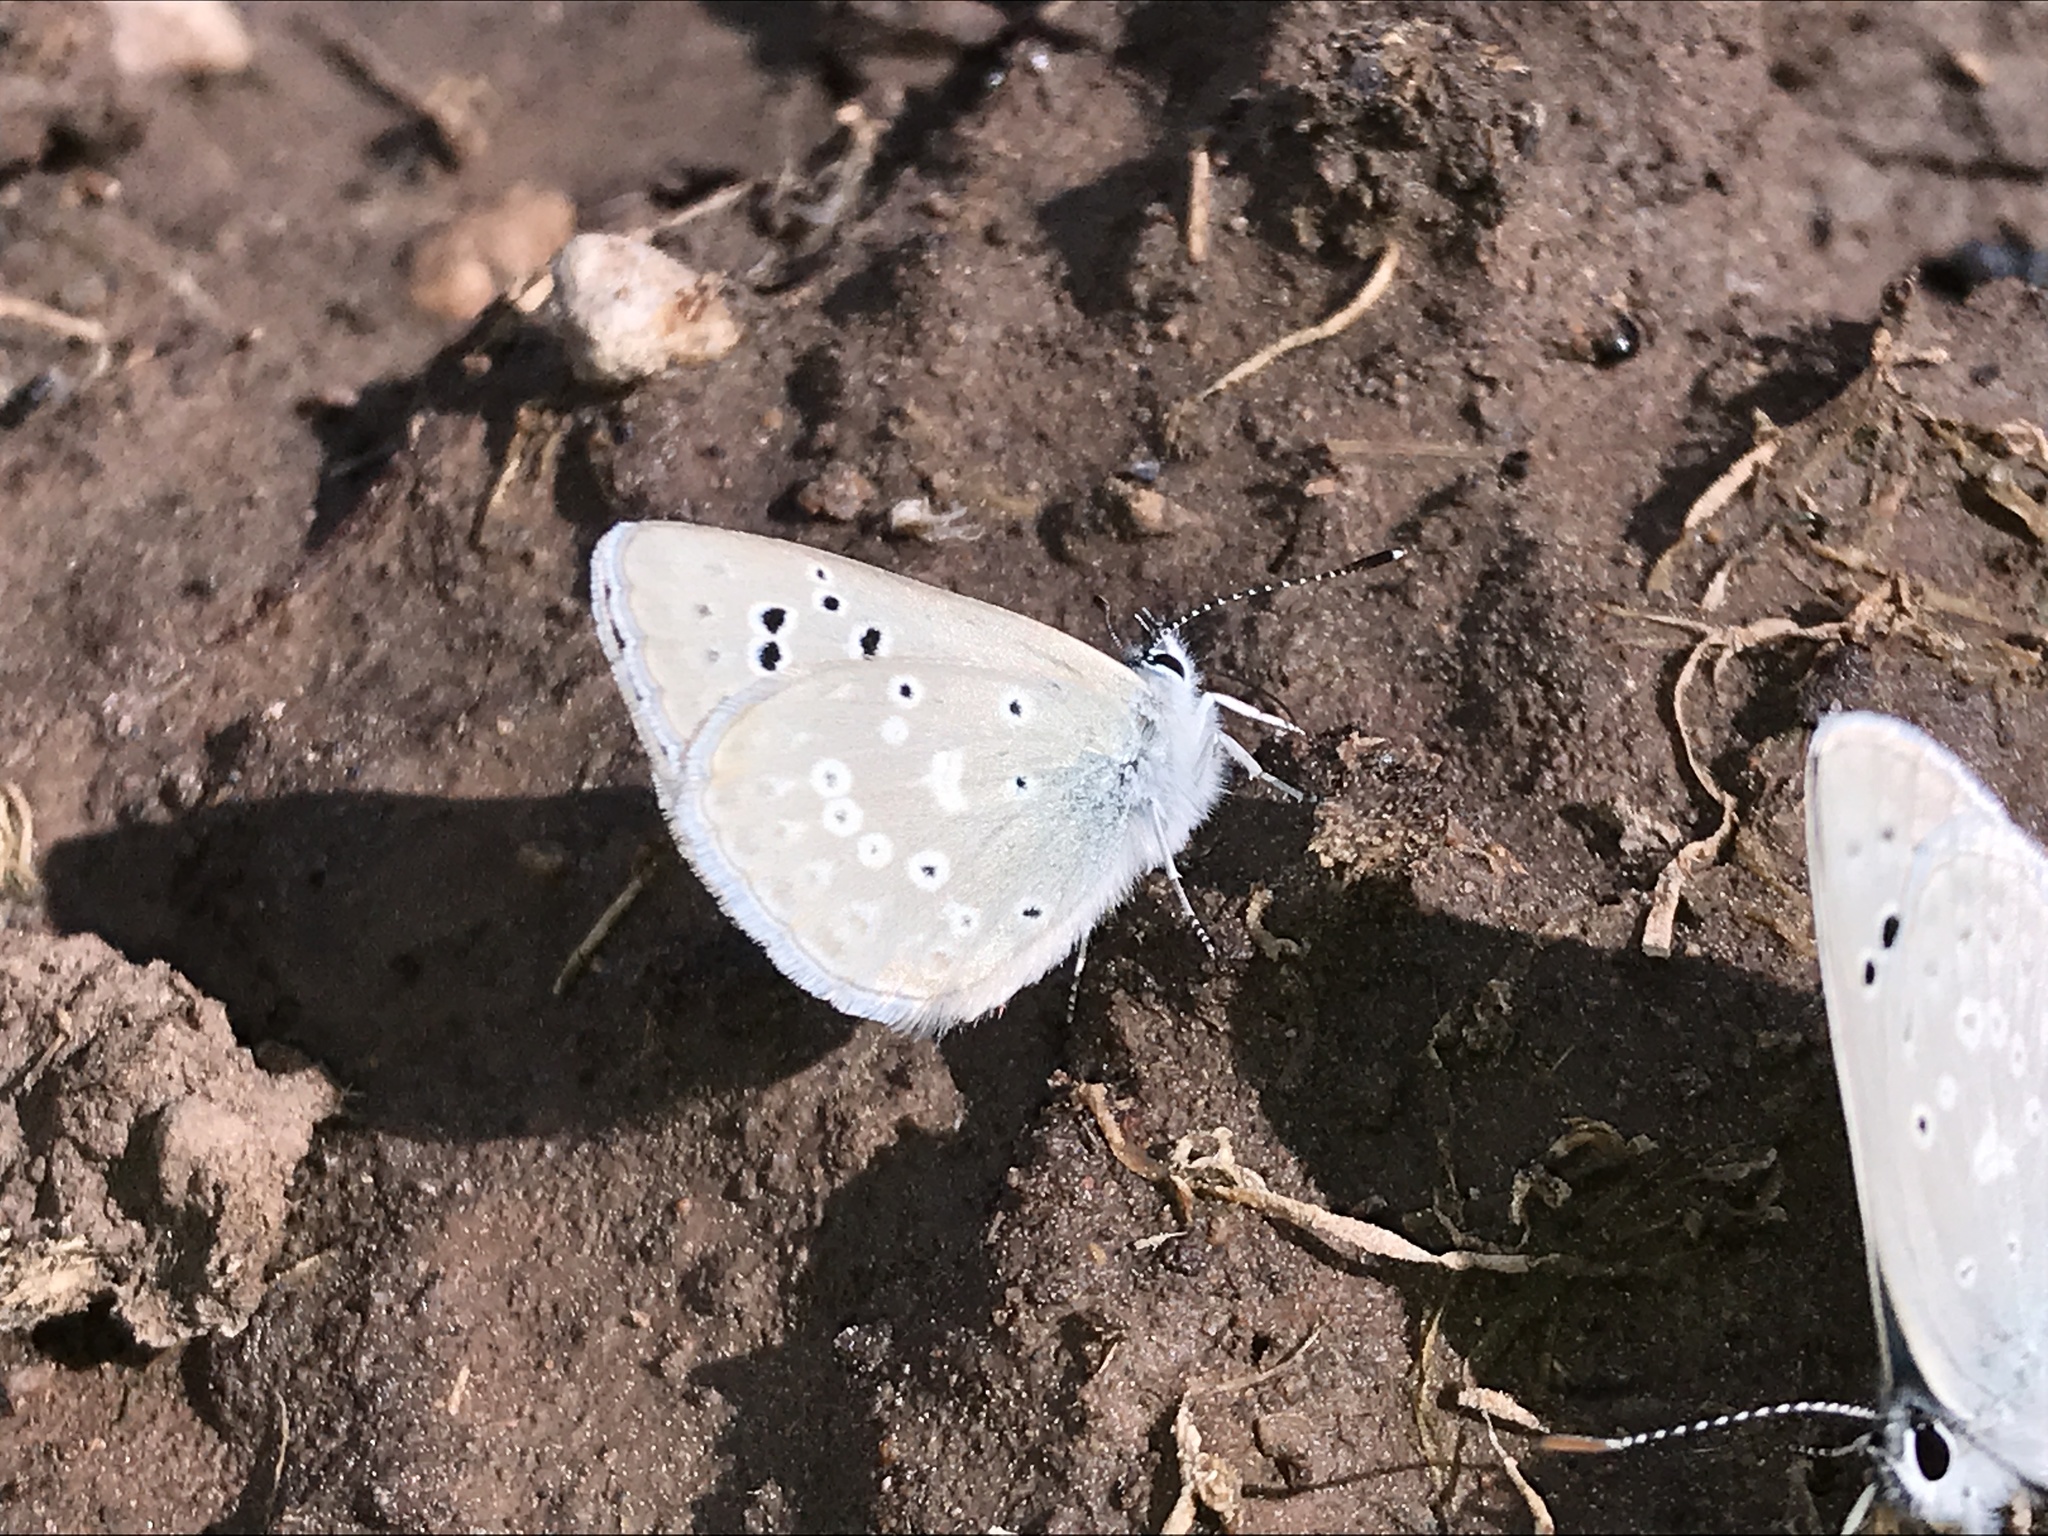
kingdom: Animalia
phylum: Arthropoda
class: Insecta
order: Lepidoptera
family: Lycaenidae
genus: Icaricia
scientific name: Icaricia icarioides
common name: Boisduval's blue
